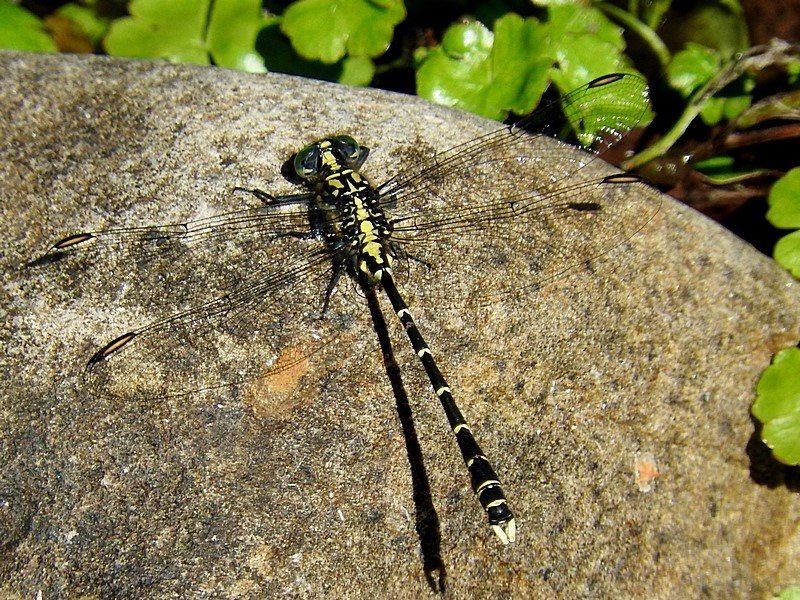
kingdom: Animalia
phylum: Arthropoda
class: Insecta
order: Odonata
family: Gomphidae
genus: Hemigomphus
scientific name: Hemigomphus gouldii
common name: Southern vicetail
